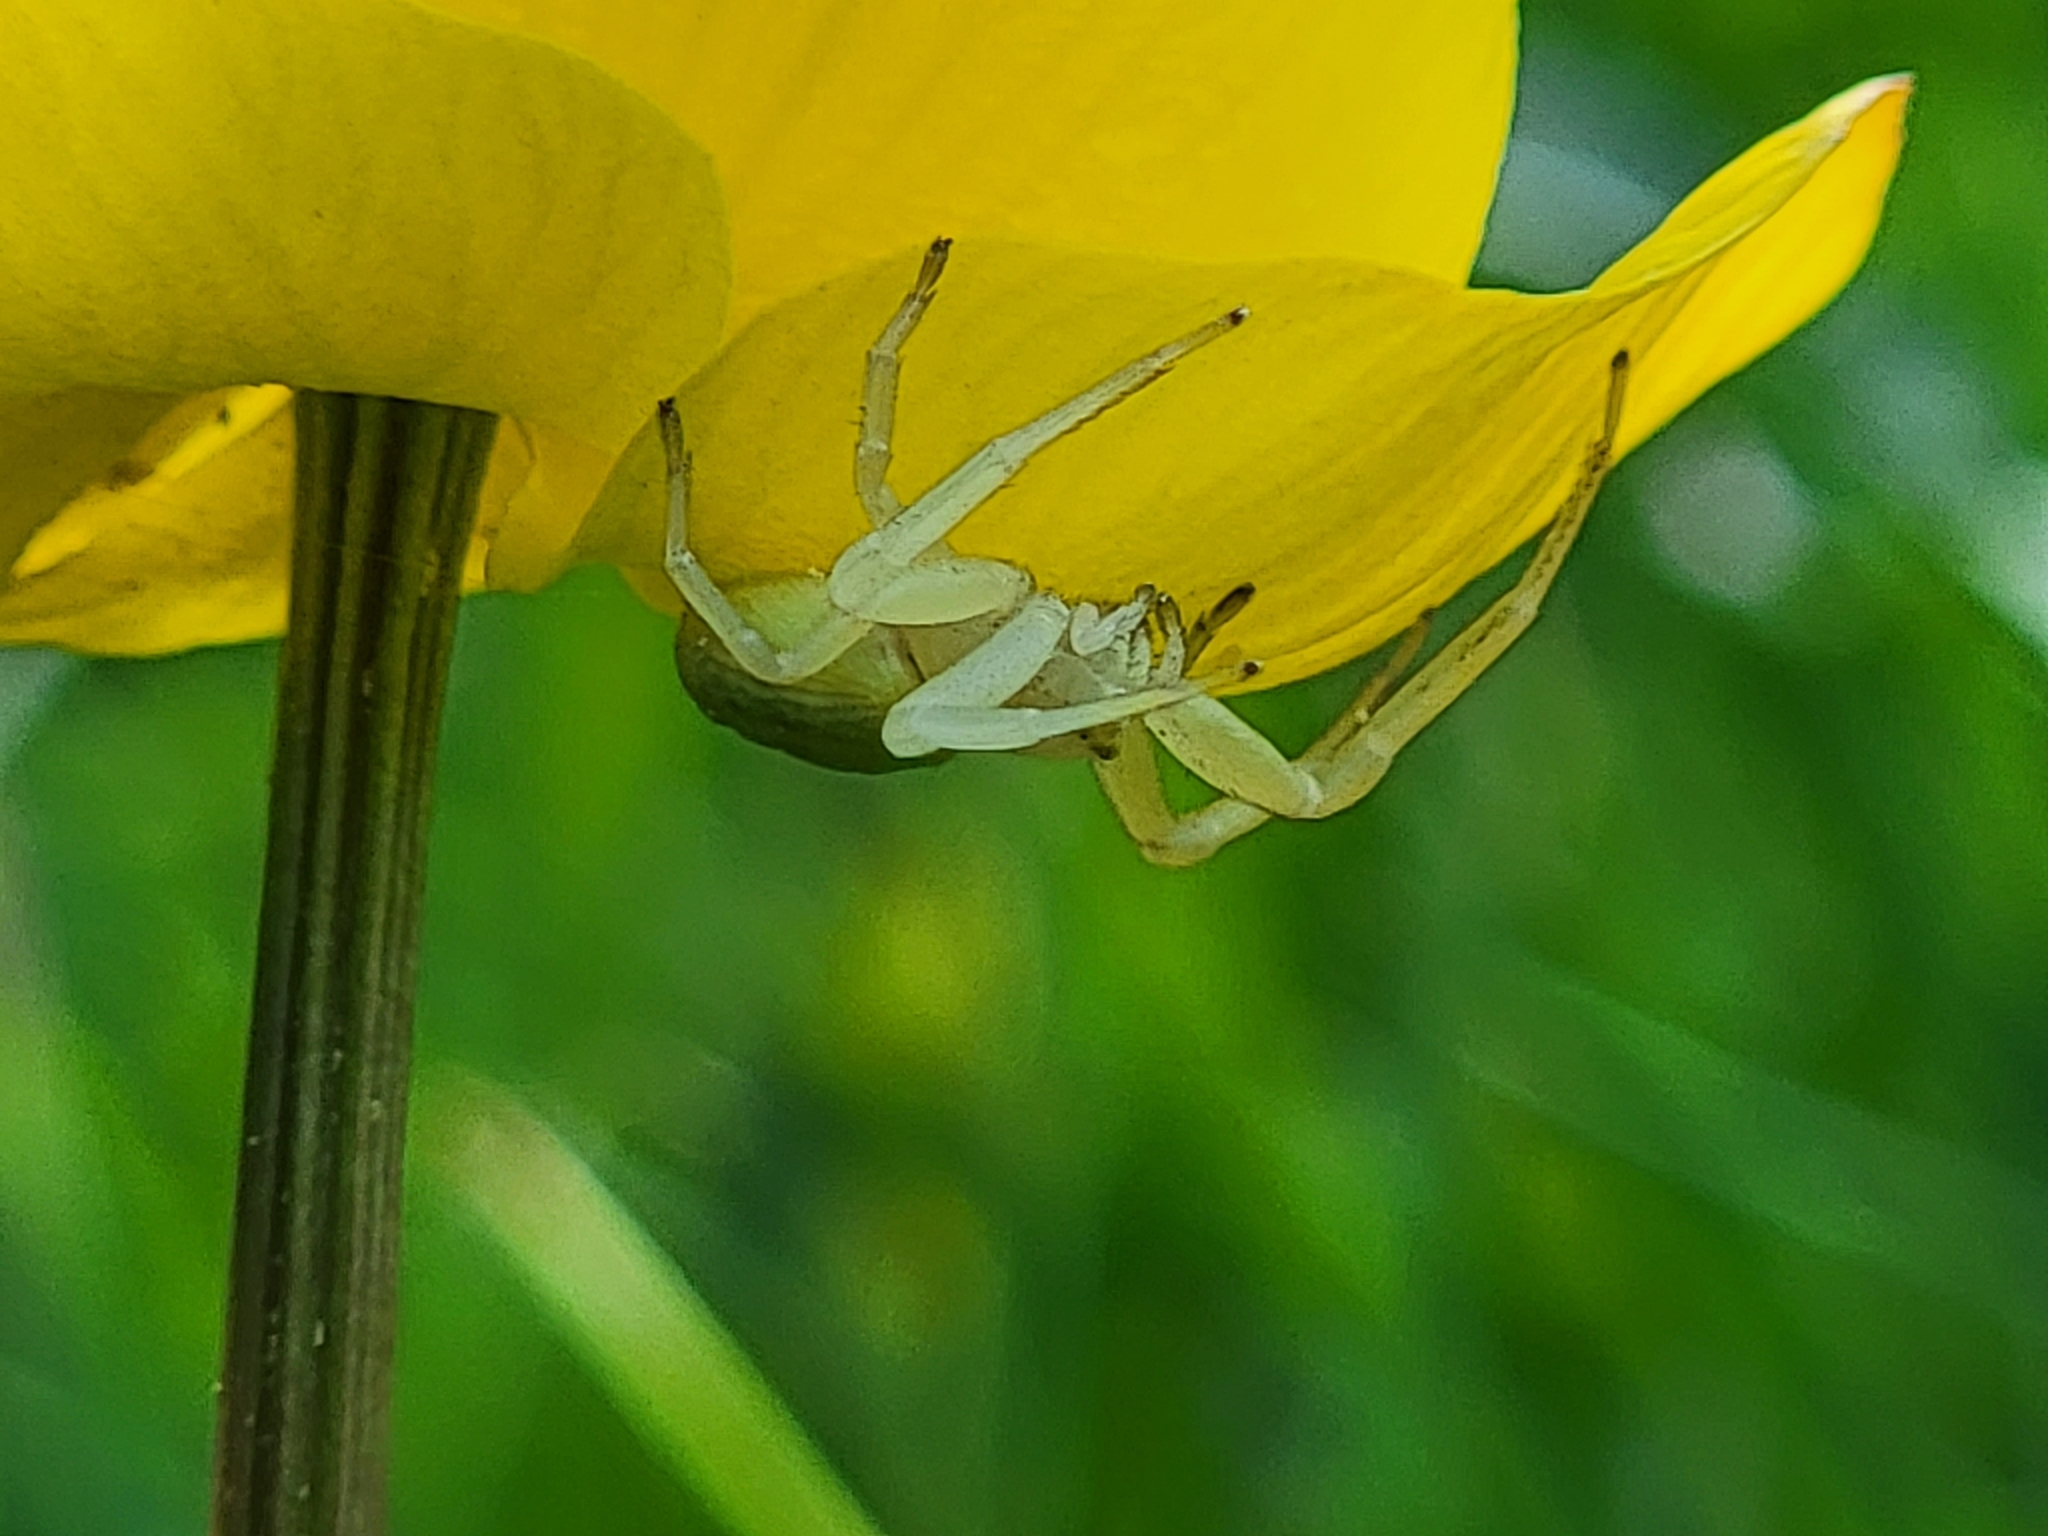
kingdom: Animalia
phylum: Arthropoda
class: Arachnida
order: Araneae
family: Thomisidae
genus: Misumena
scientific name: Misumena vatia
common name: Goldenrod crab spider
